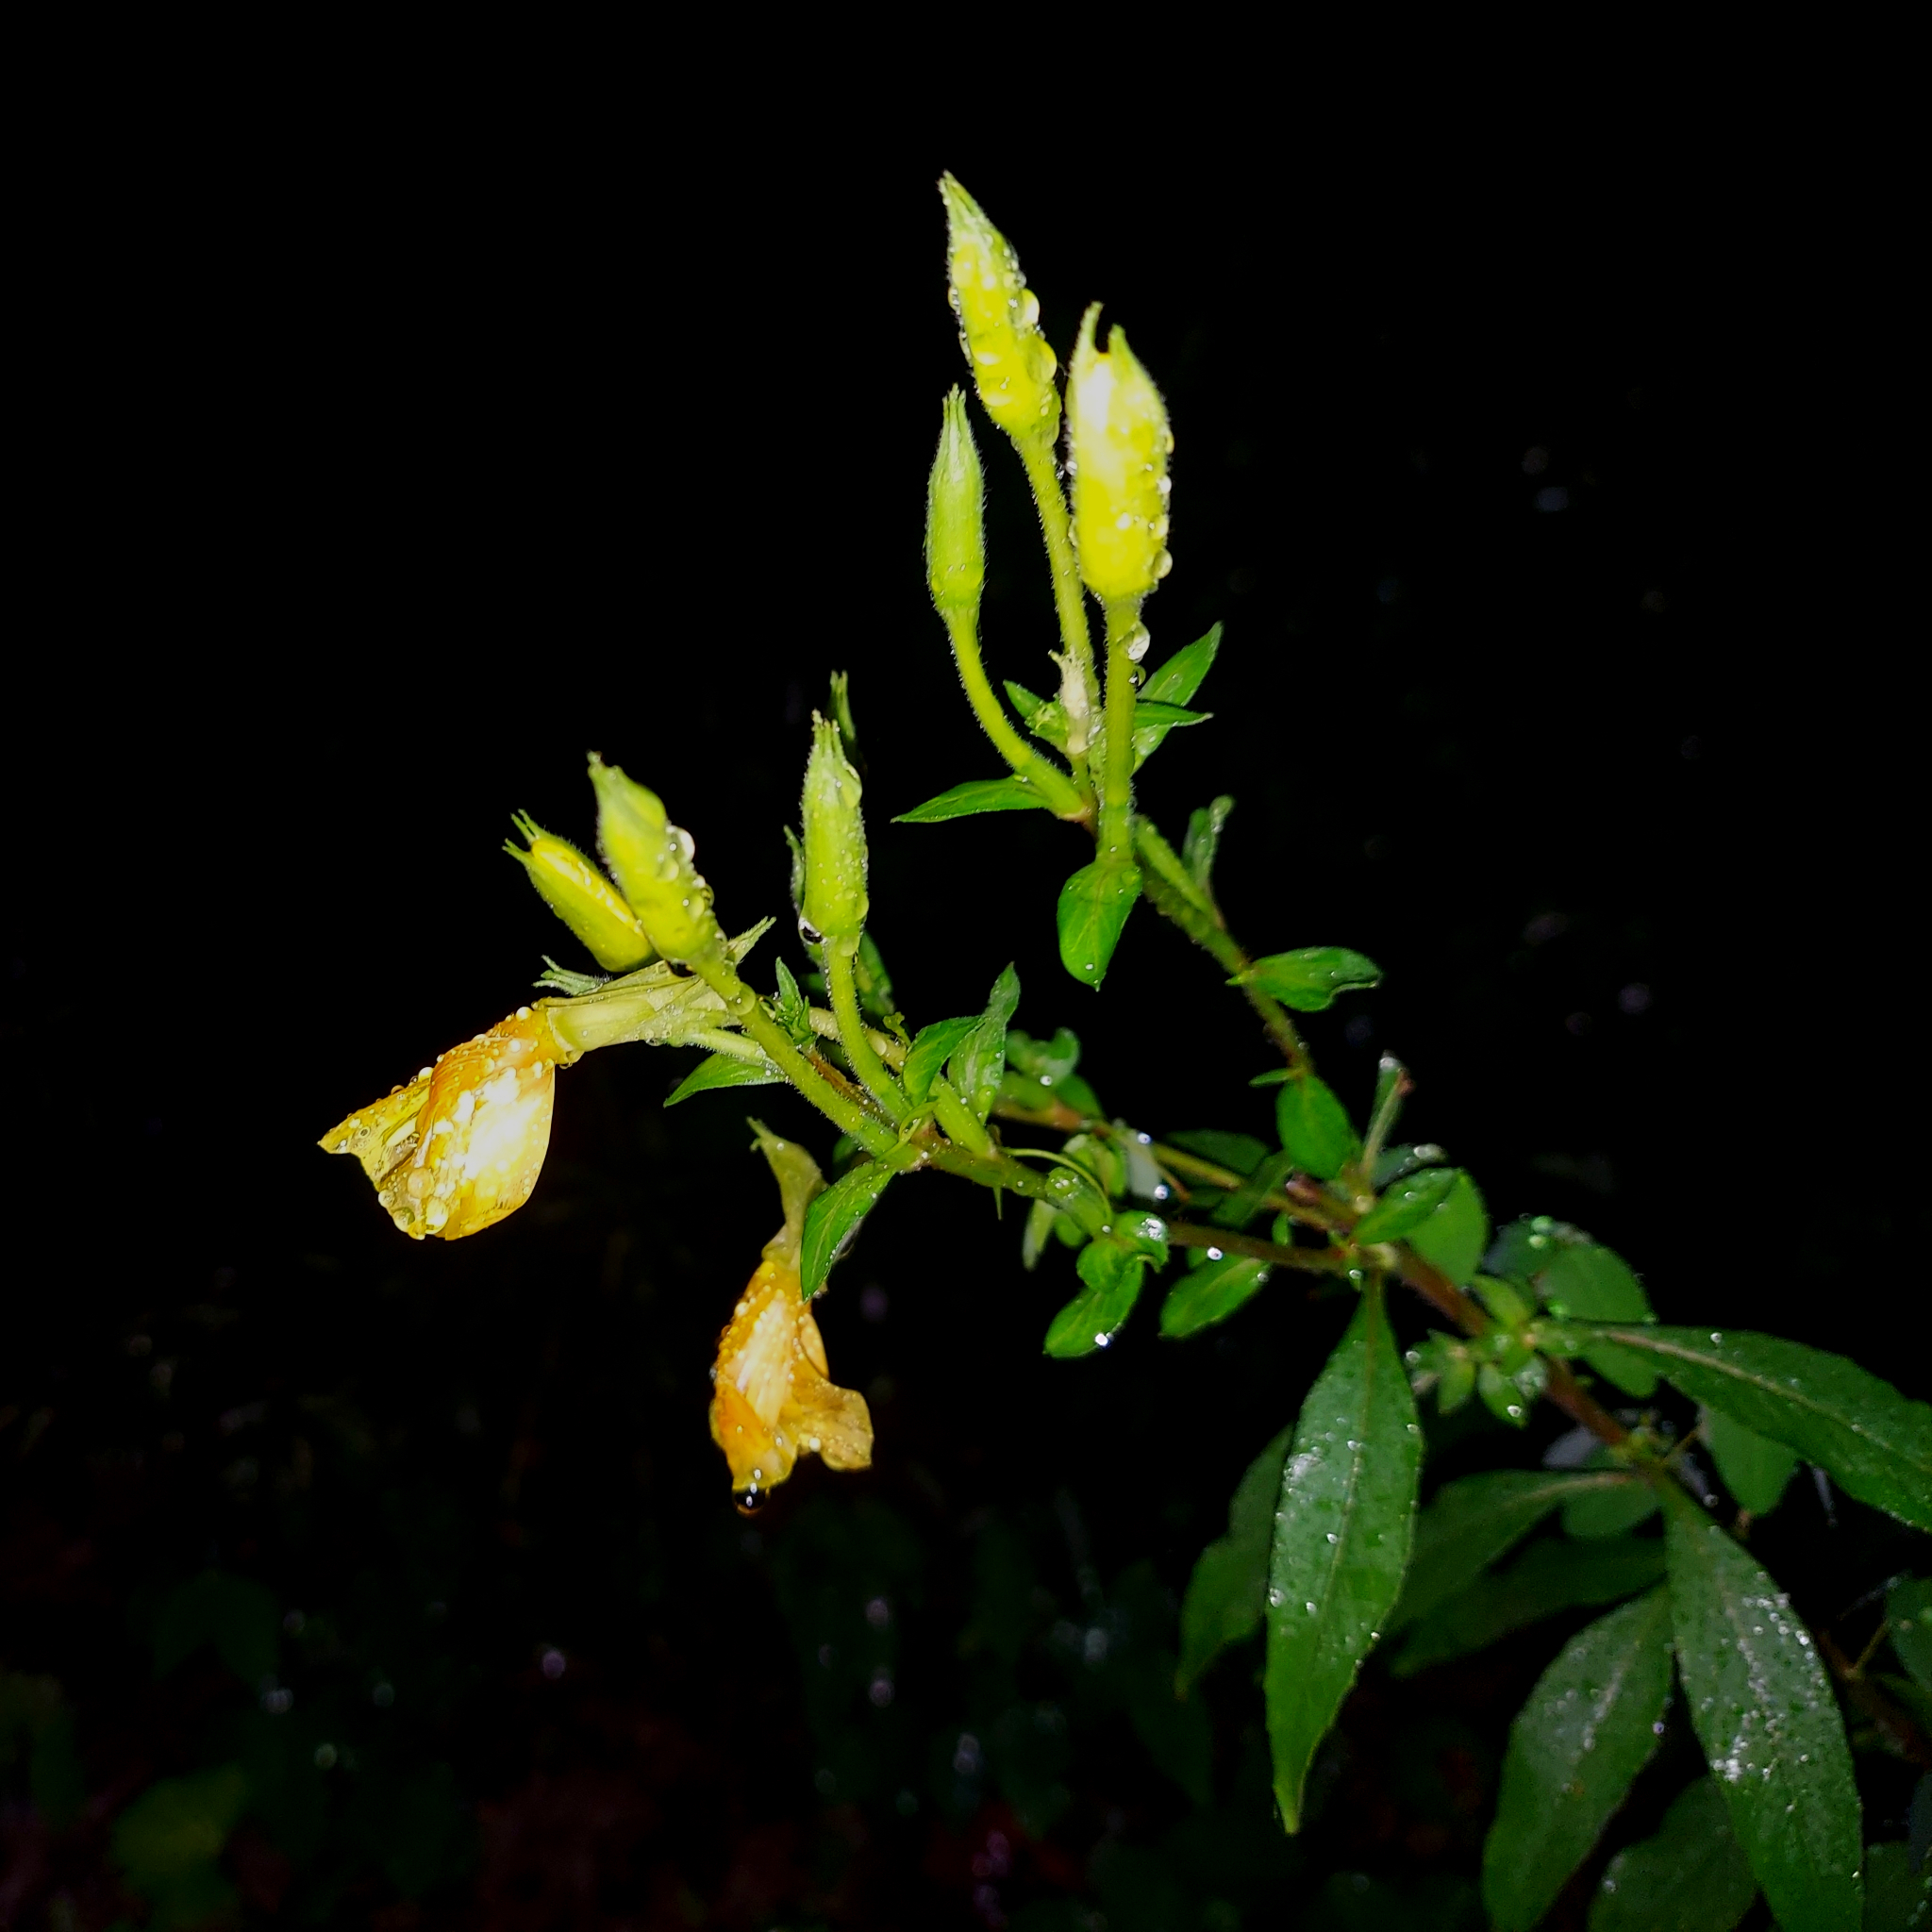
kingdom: Plantae
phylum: Tracheophyta
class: Magnoliopsida
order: Myrtales
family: Onagraceae
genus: Oenothera
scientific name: Oenothera nutans
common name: Nodding evening-primrose
